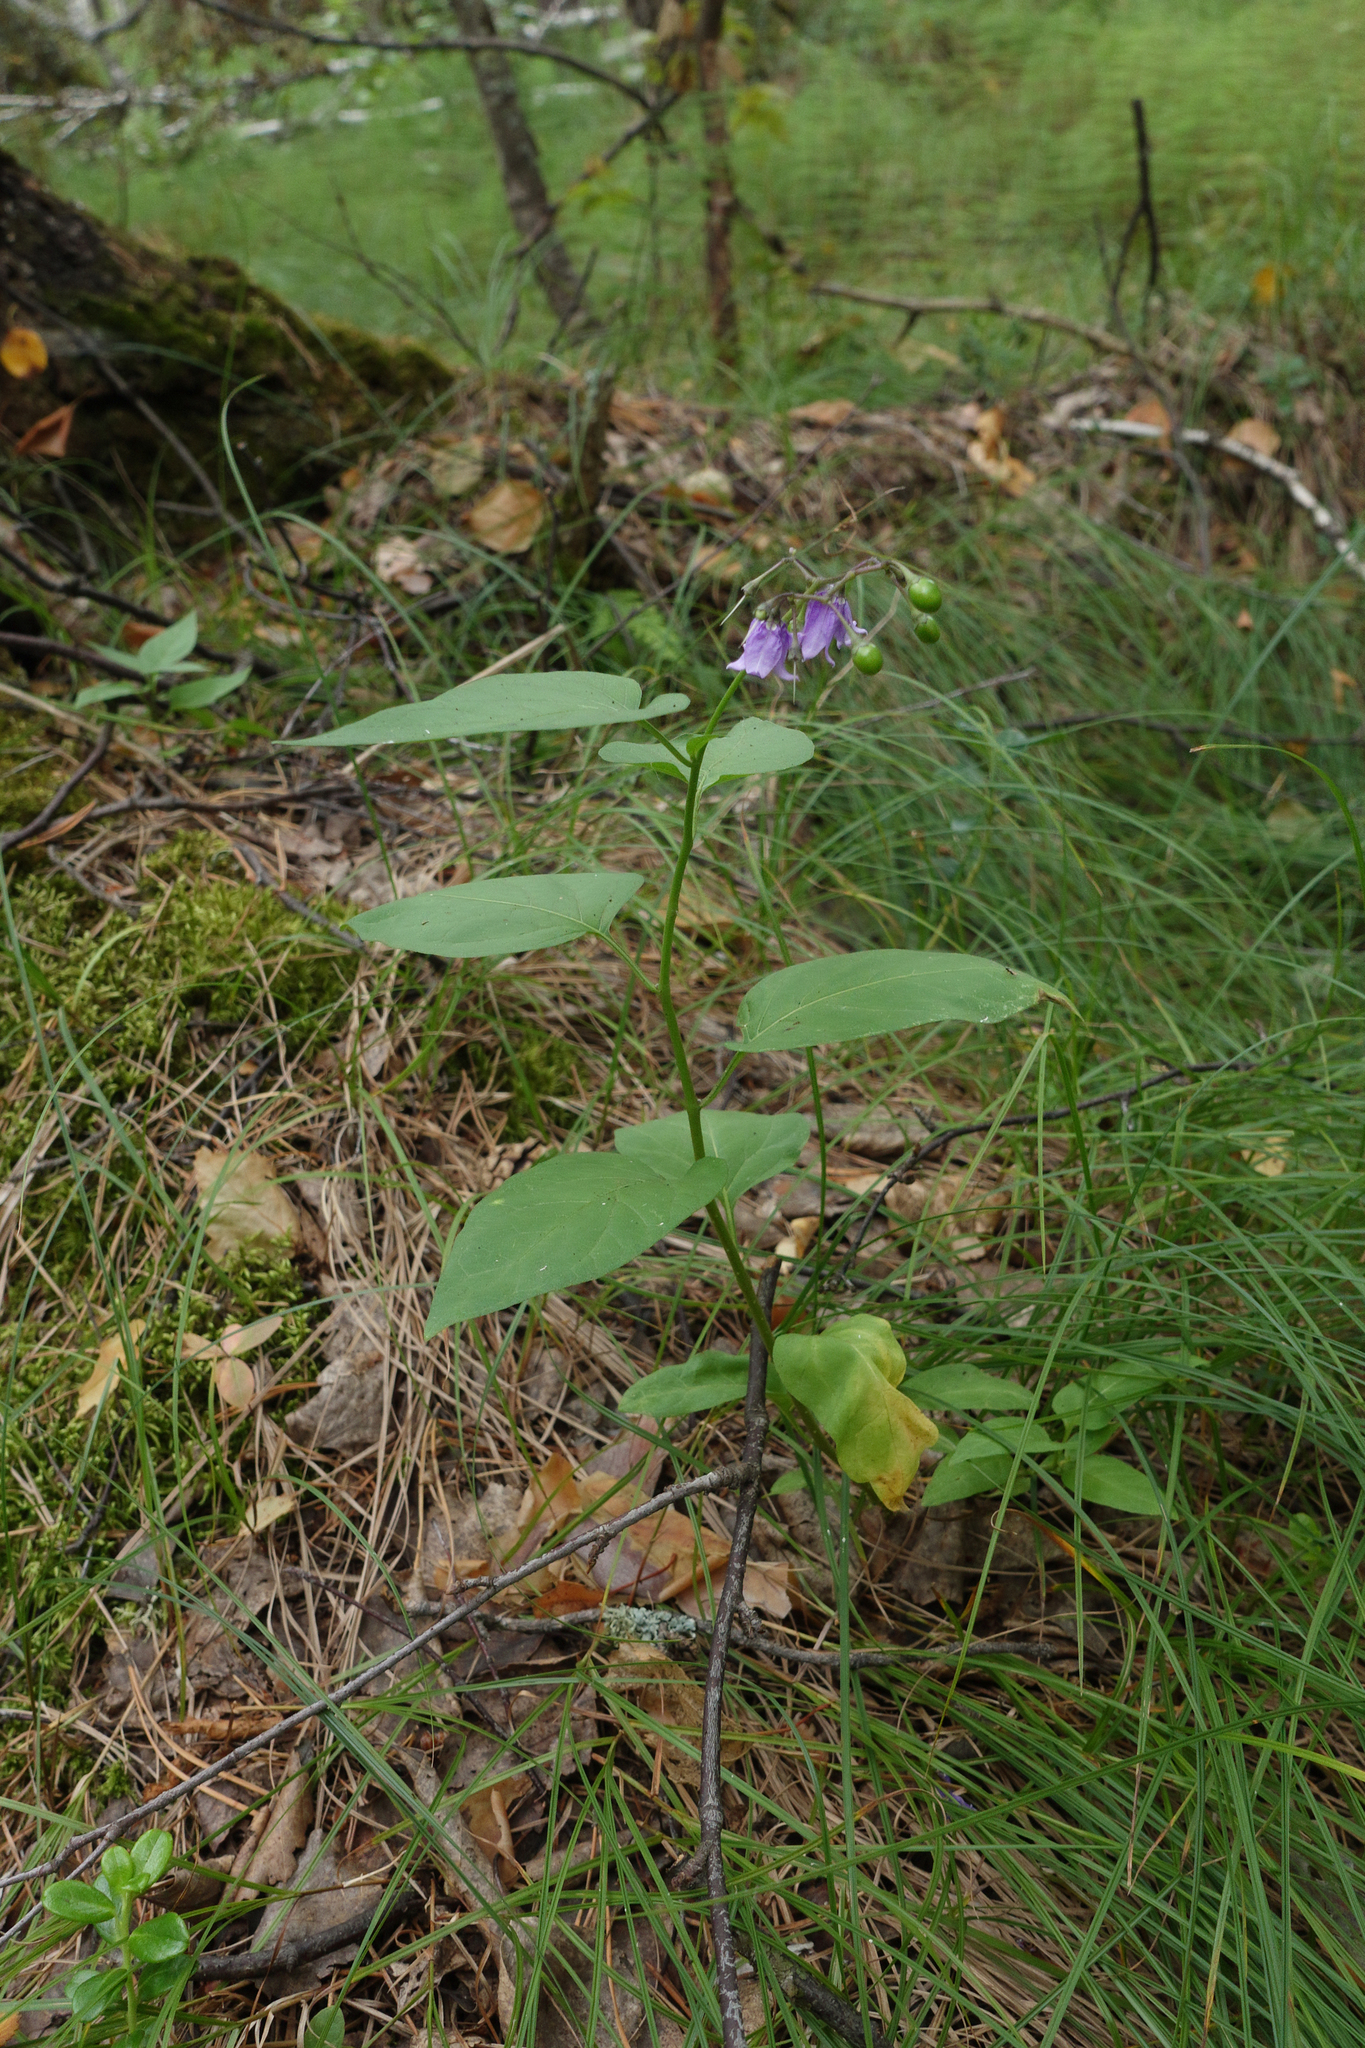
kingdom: Plantae
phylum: Tracheophyta
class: Magnoliopsida
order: Solanales
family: Solanaceae
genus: Solanum
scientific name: Solanum dulcamara
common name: Climbing nightshade
